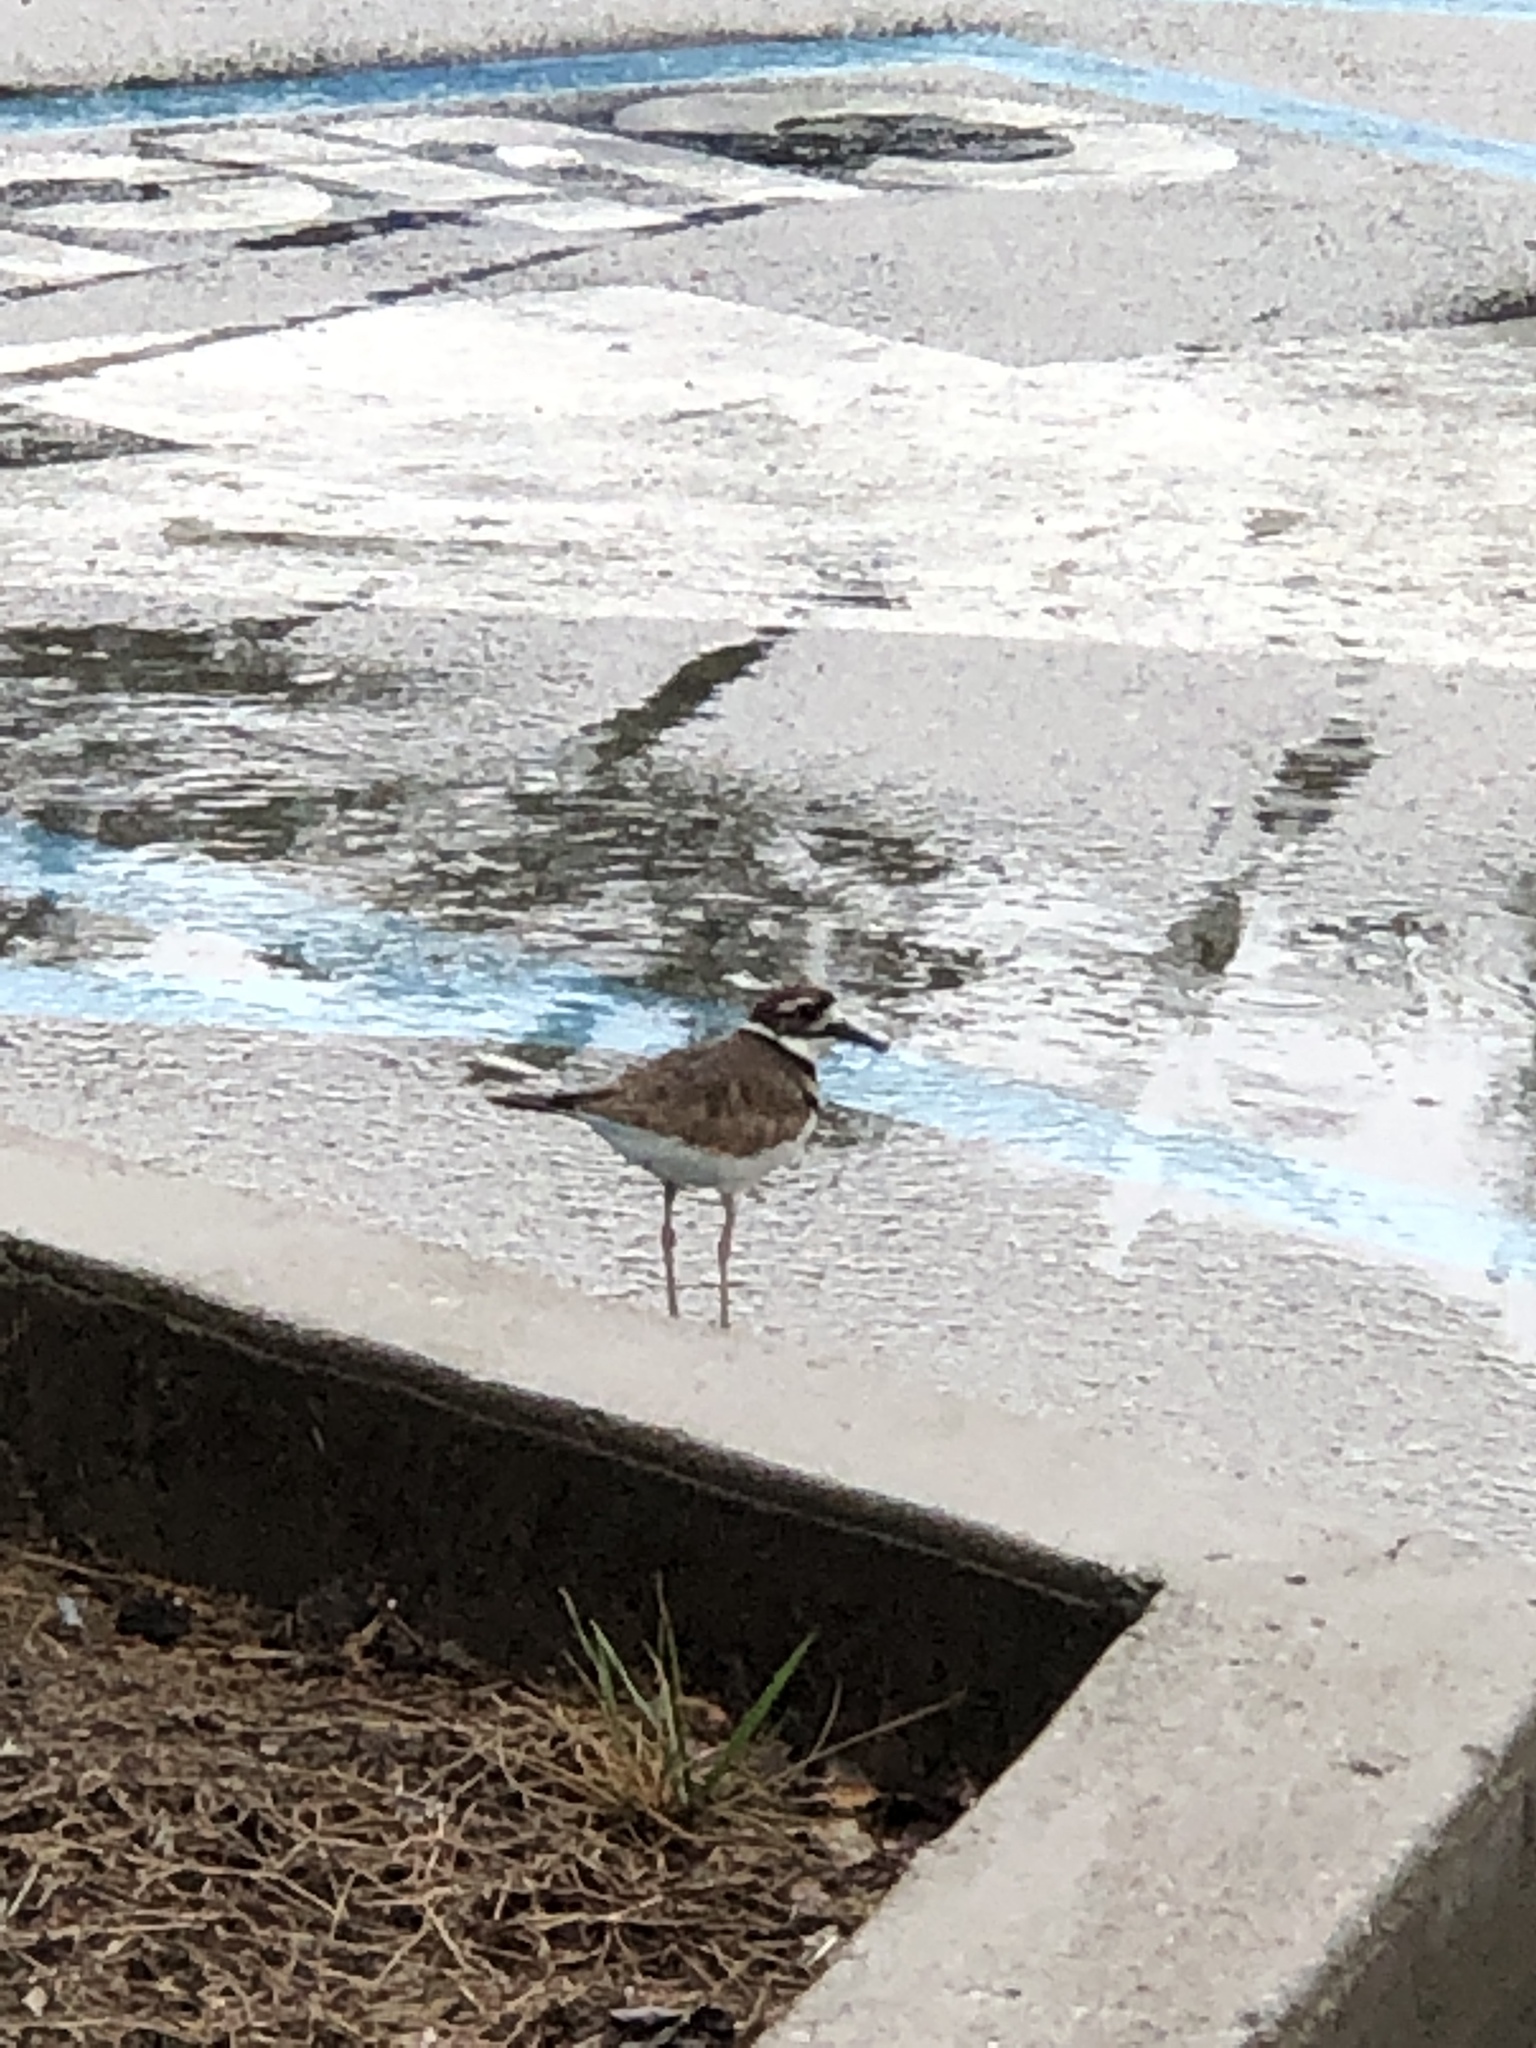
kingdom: Animalia
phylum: Chordata
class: Aves
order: Charadriiformes
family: Charadriidae
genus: Charadrius
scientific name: Charadrius vociferus
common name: Killdeer
